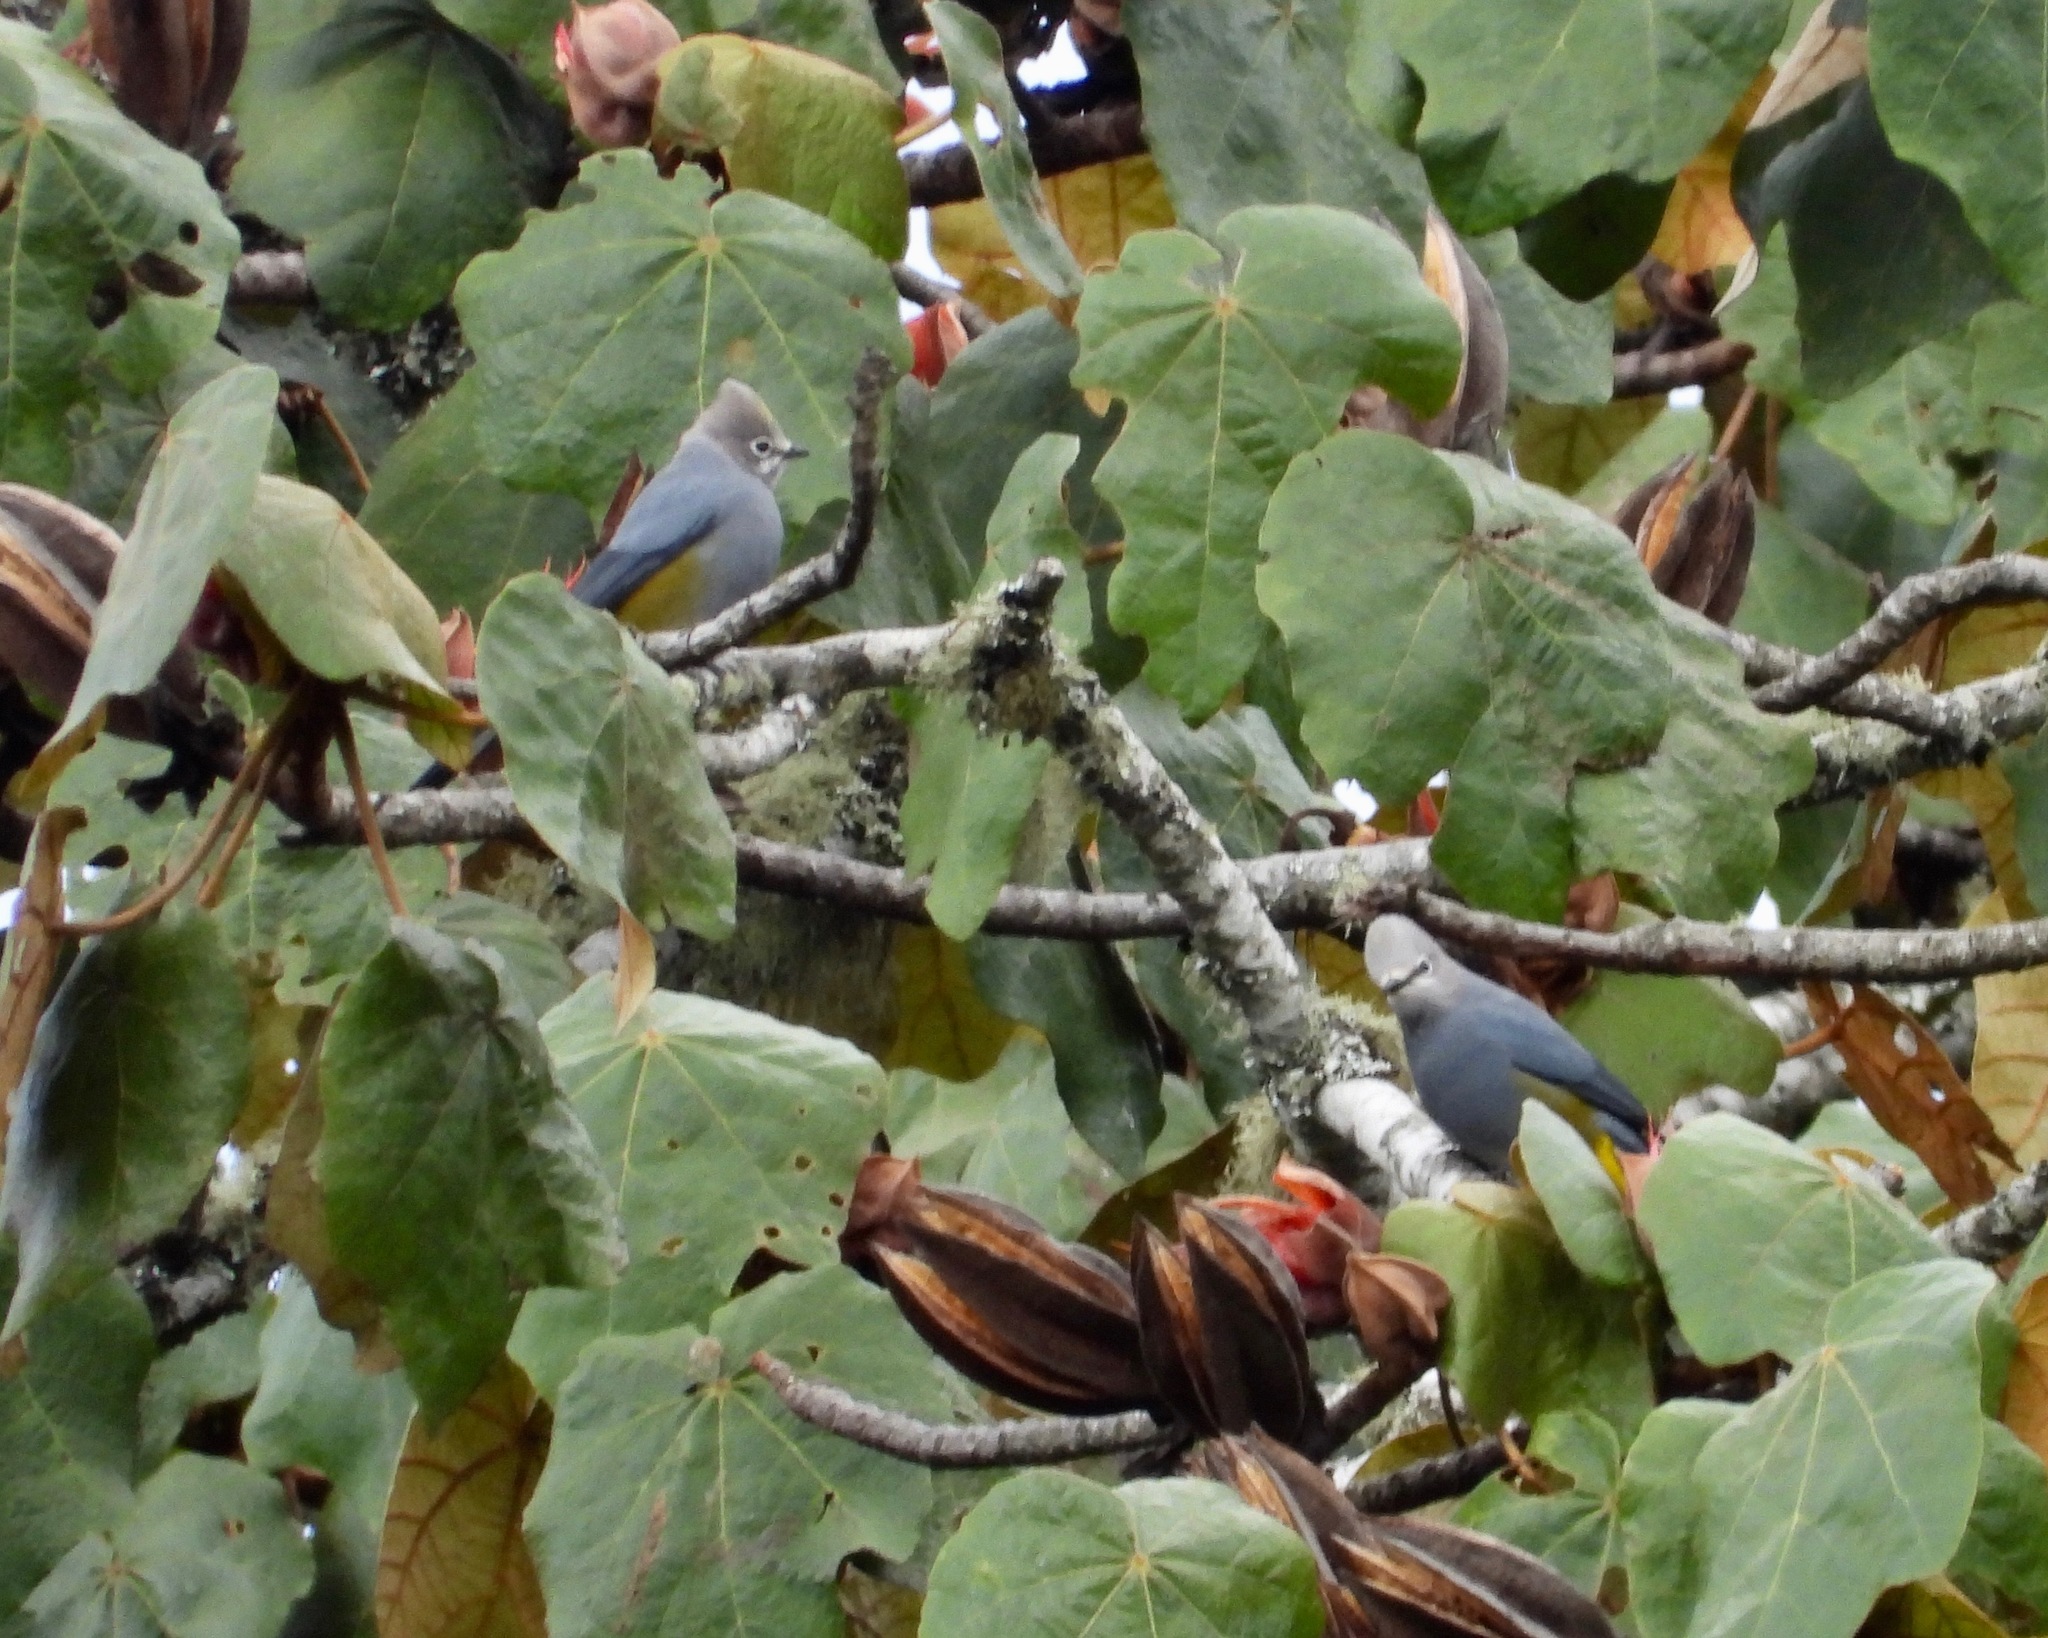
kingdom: Animalia
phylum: Chordata
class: Aves
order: Passeriformes
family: Ptilogonatidae
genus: Ptilogonys
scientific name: Ptilogonys cinereus
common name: Gray silky-flycatcher
